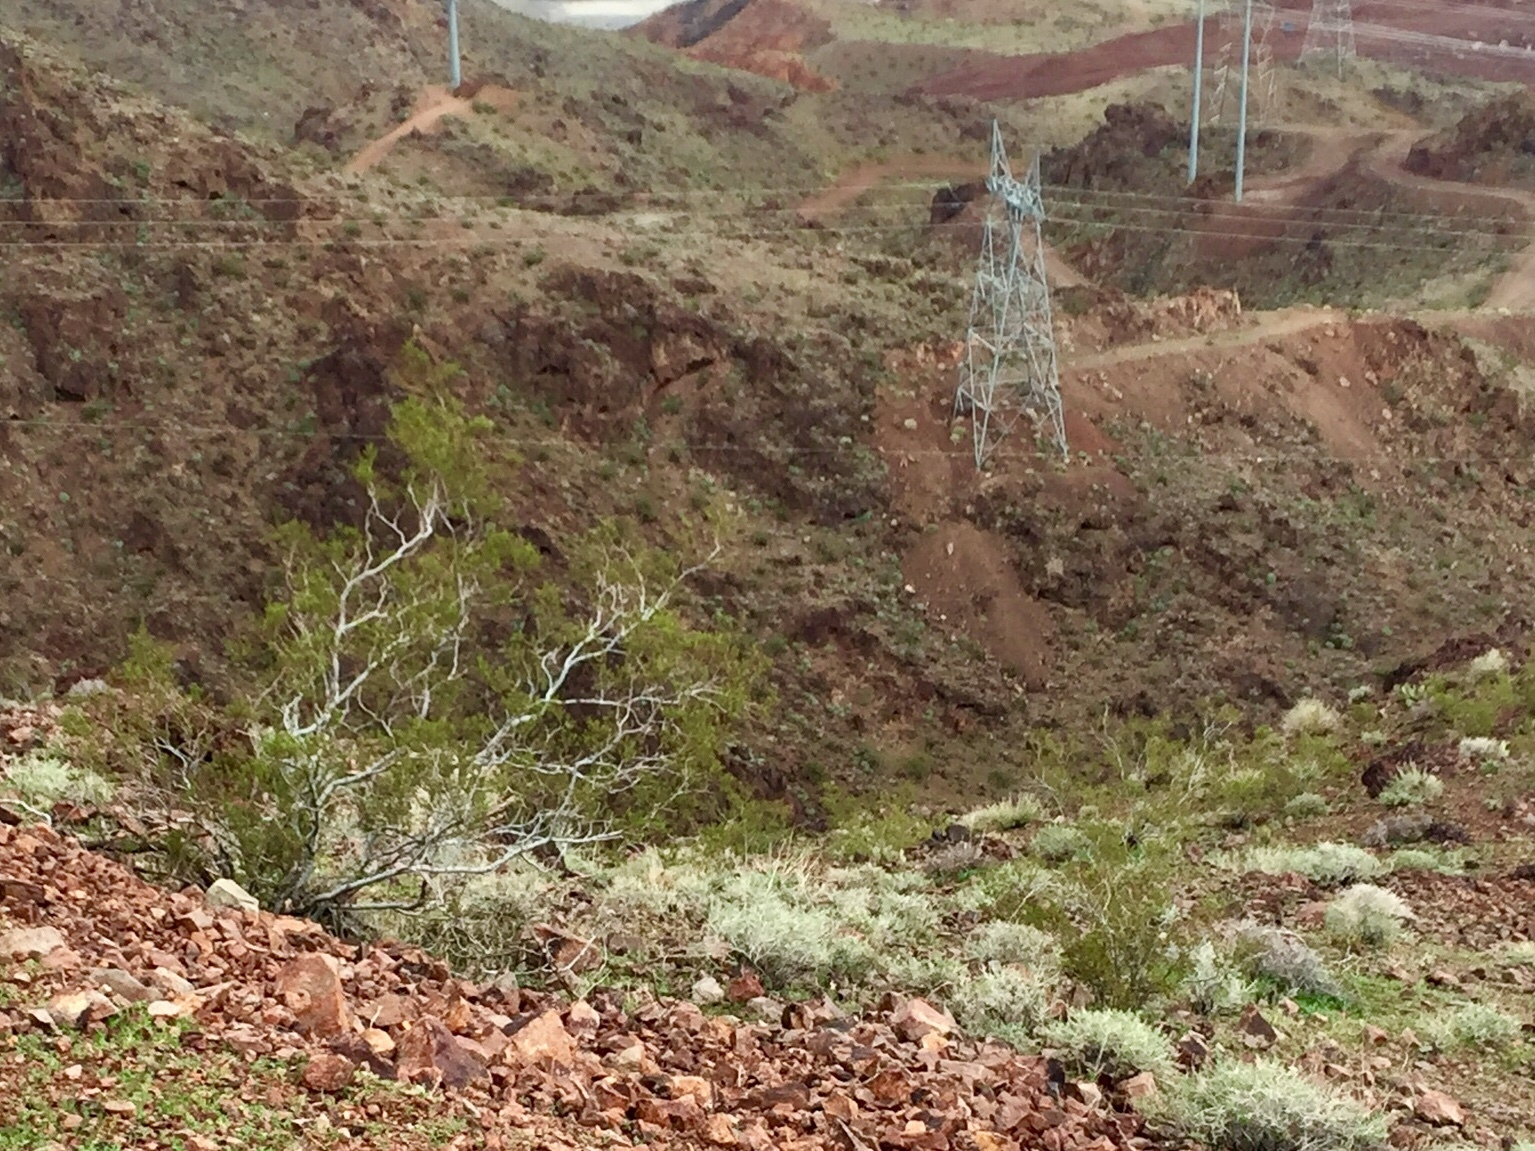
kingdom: Plantae
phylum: Tracheophyta
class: Magnoliopsida
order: Zygophyllales
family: Zygophyllaceae
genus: Larrea
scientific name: Larrea tridentata
